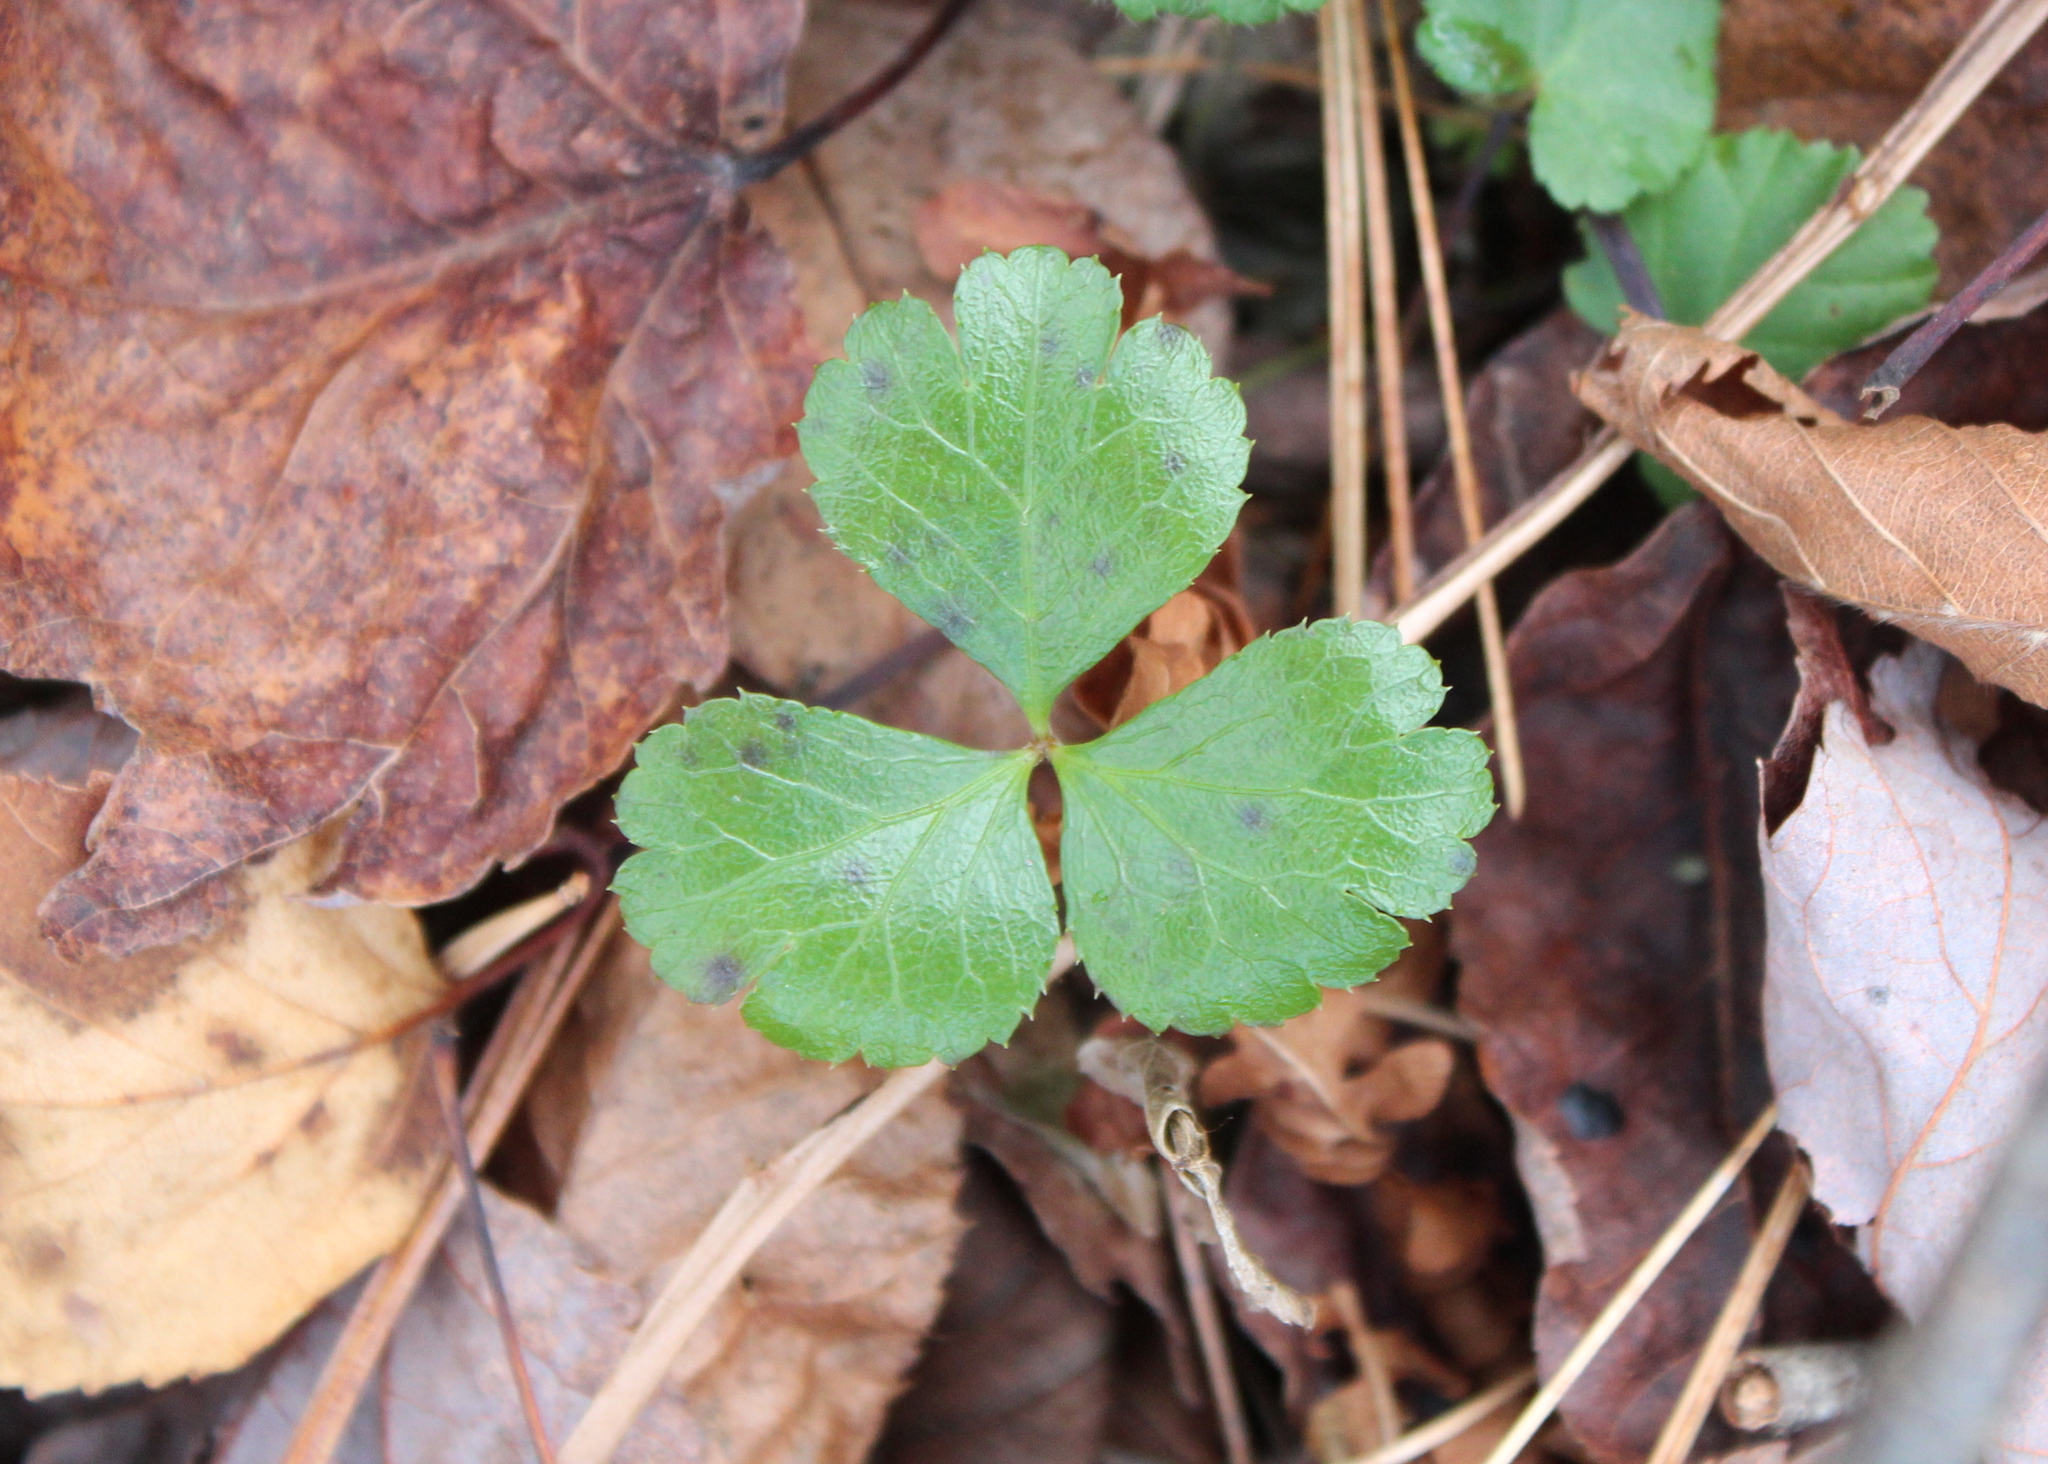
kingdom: Plantae
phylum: Tracheophyta
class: Magnoliopsida
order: Ranunculales
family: Ranunculaceae
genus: Coptis
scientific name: Coptis trifolia
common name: Canker-root
